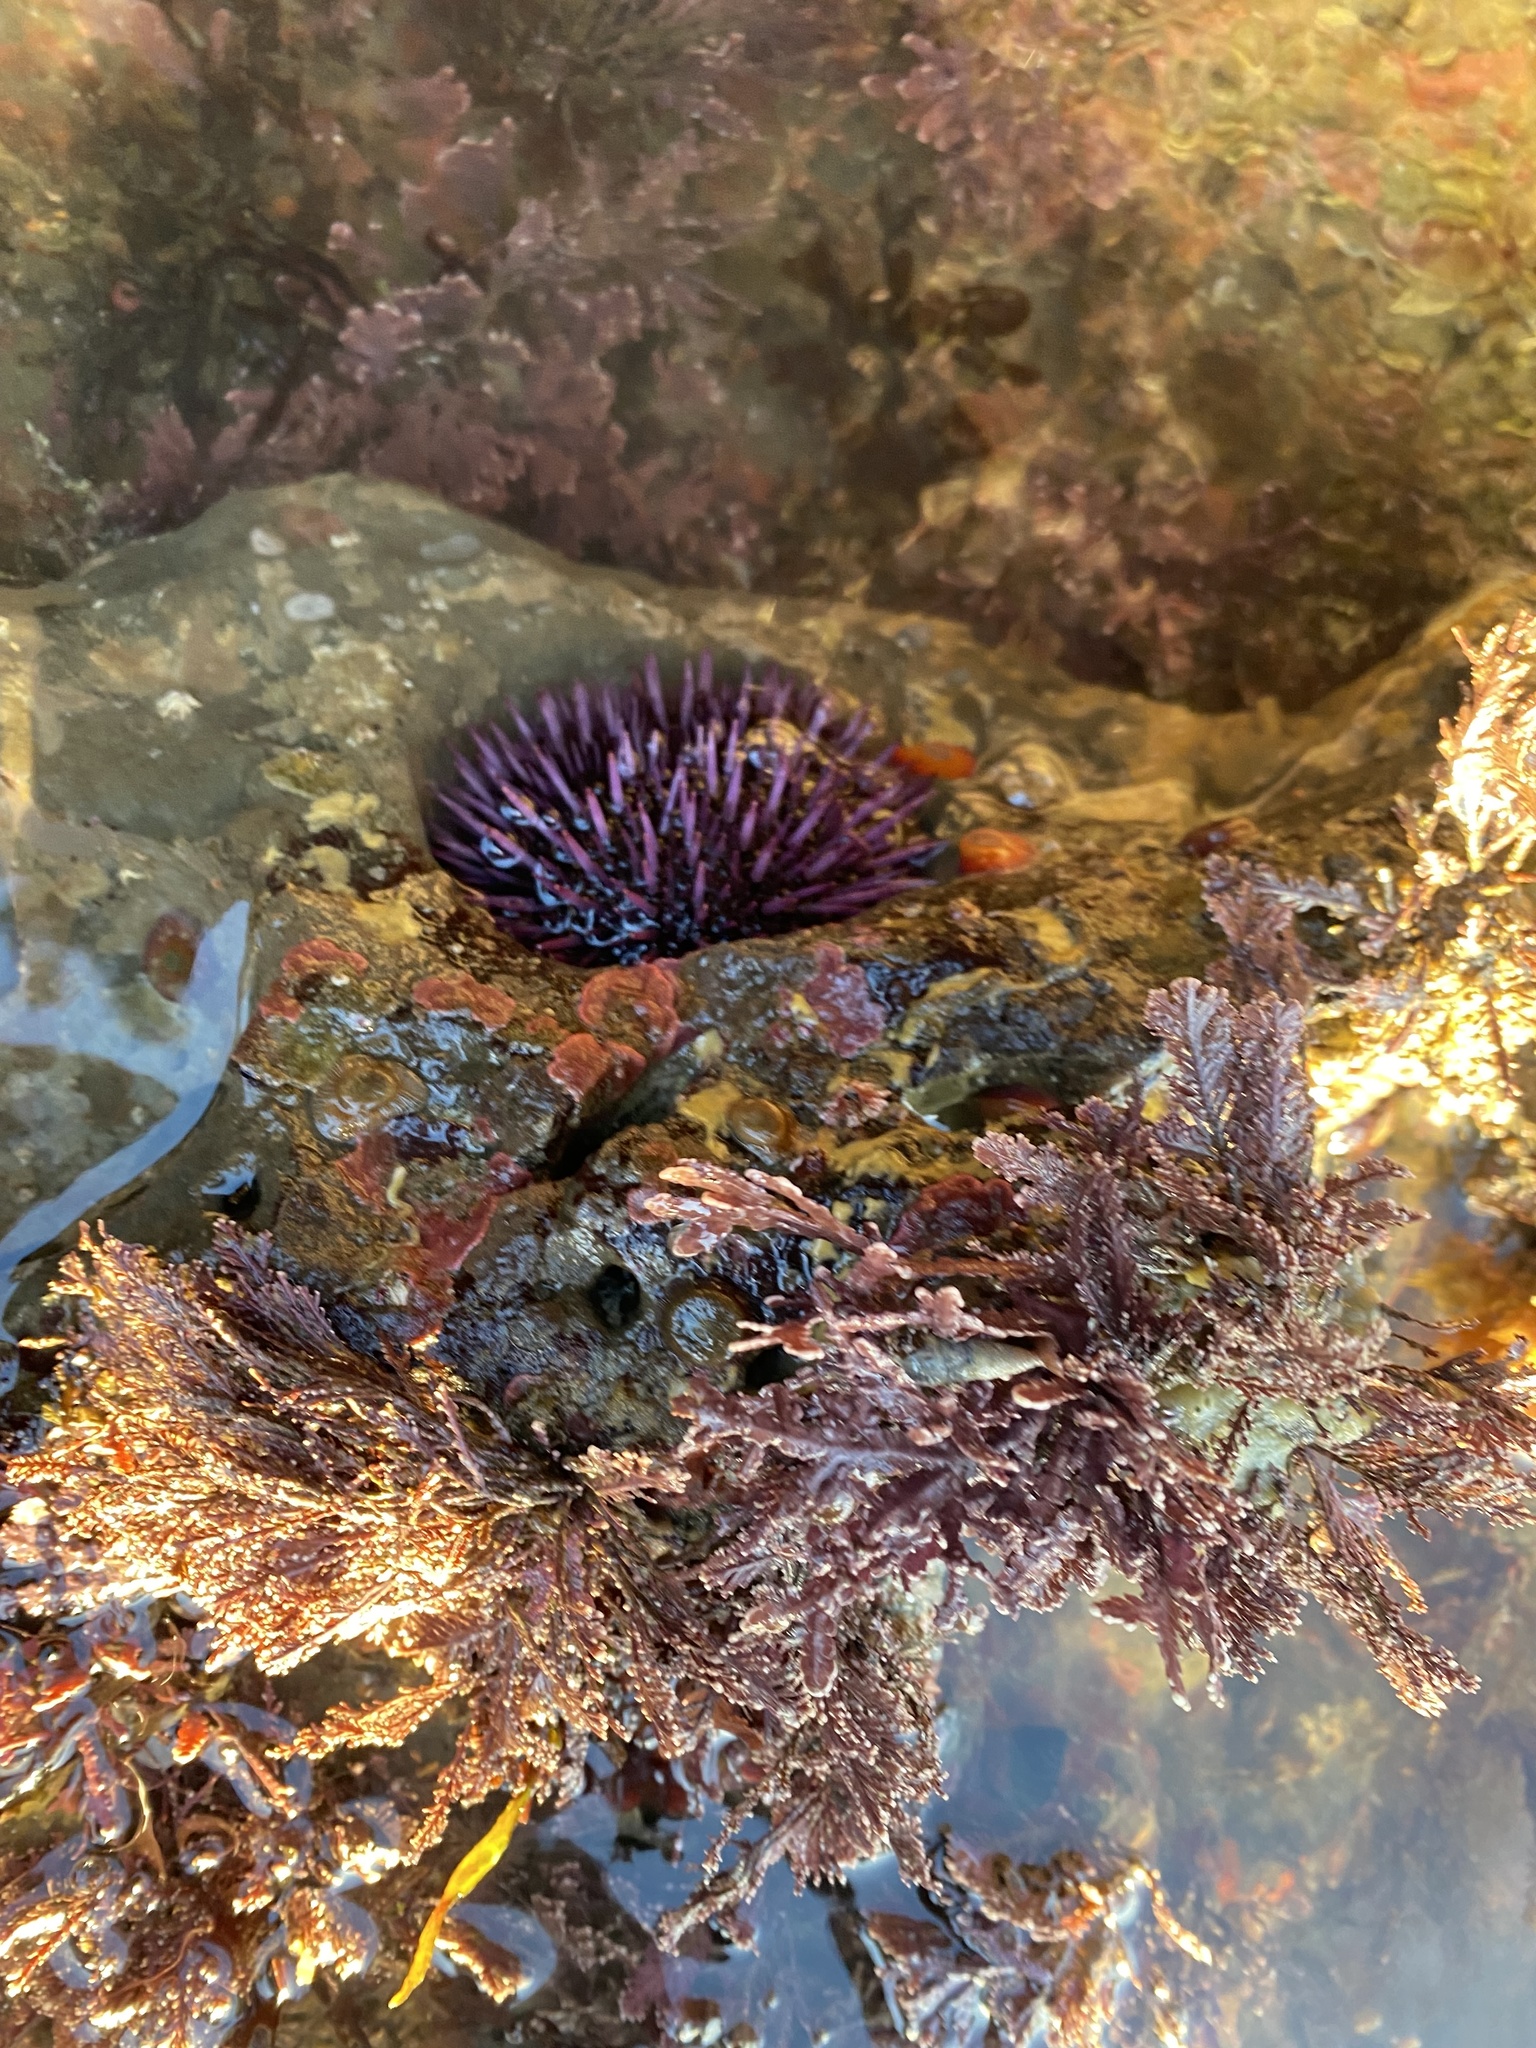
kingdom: Animalia
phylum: Echinodermata
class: Echinoidea
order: Camarodonta
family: Strongylocentrotidae
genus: Strongylocentrotus
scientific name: Strongylocentrotus purpuratus
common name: Purple sea urchin
